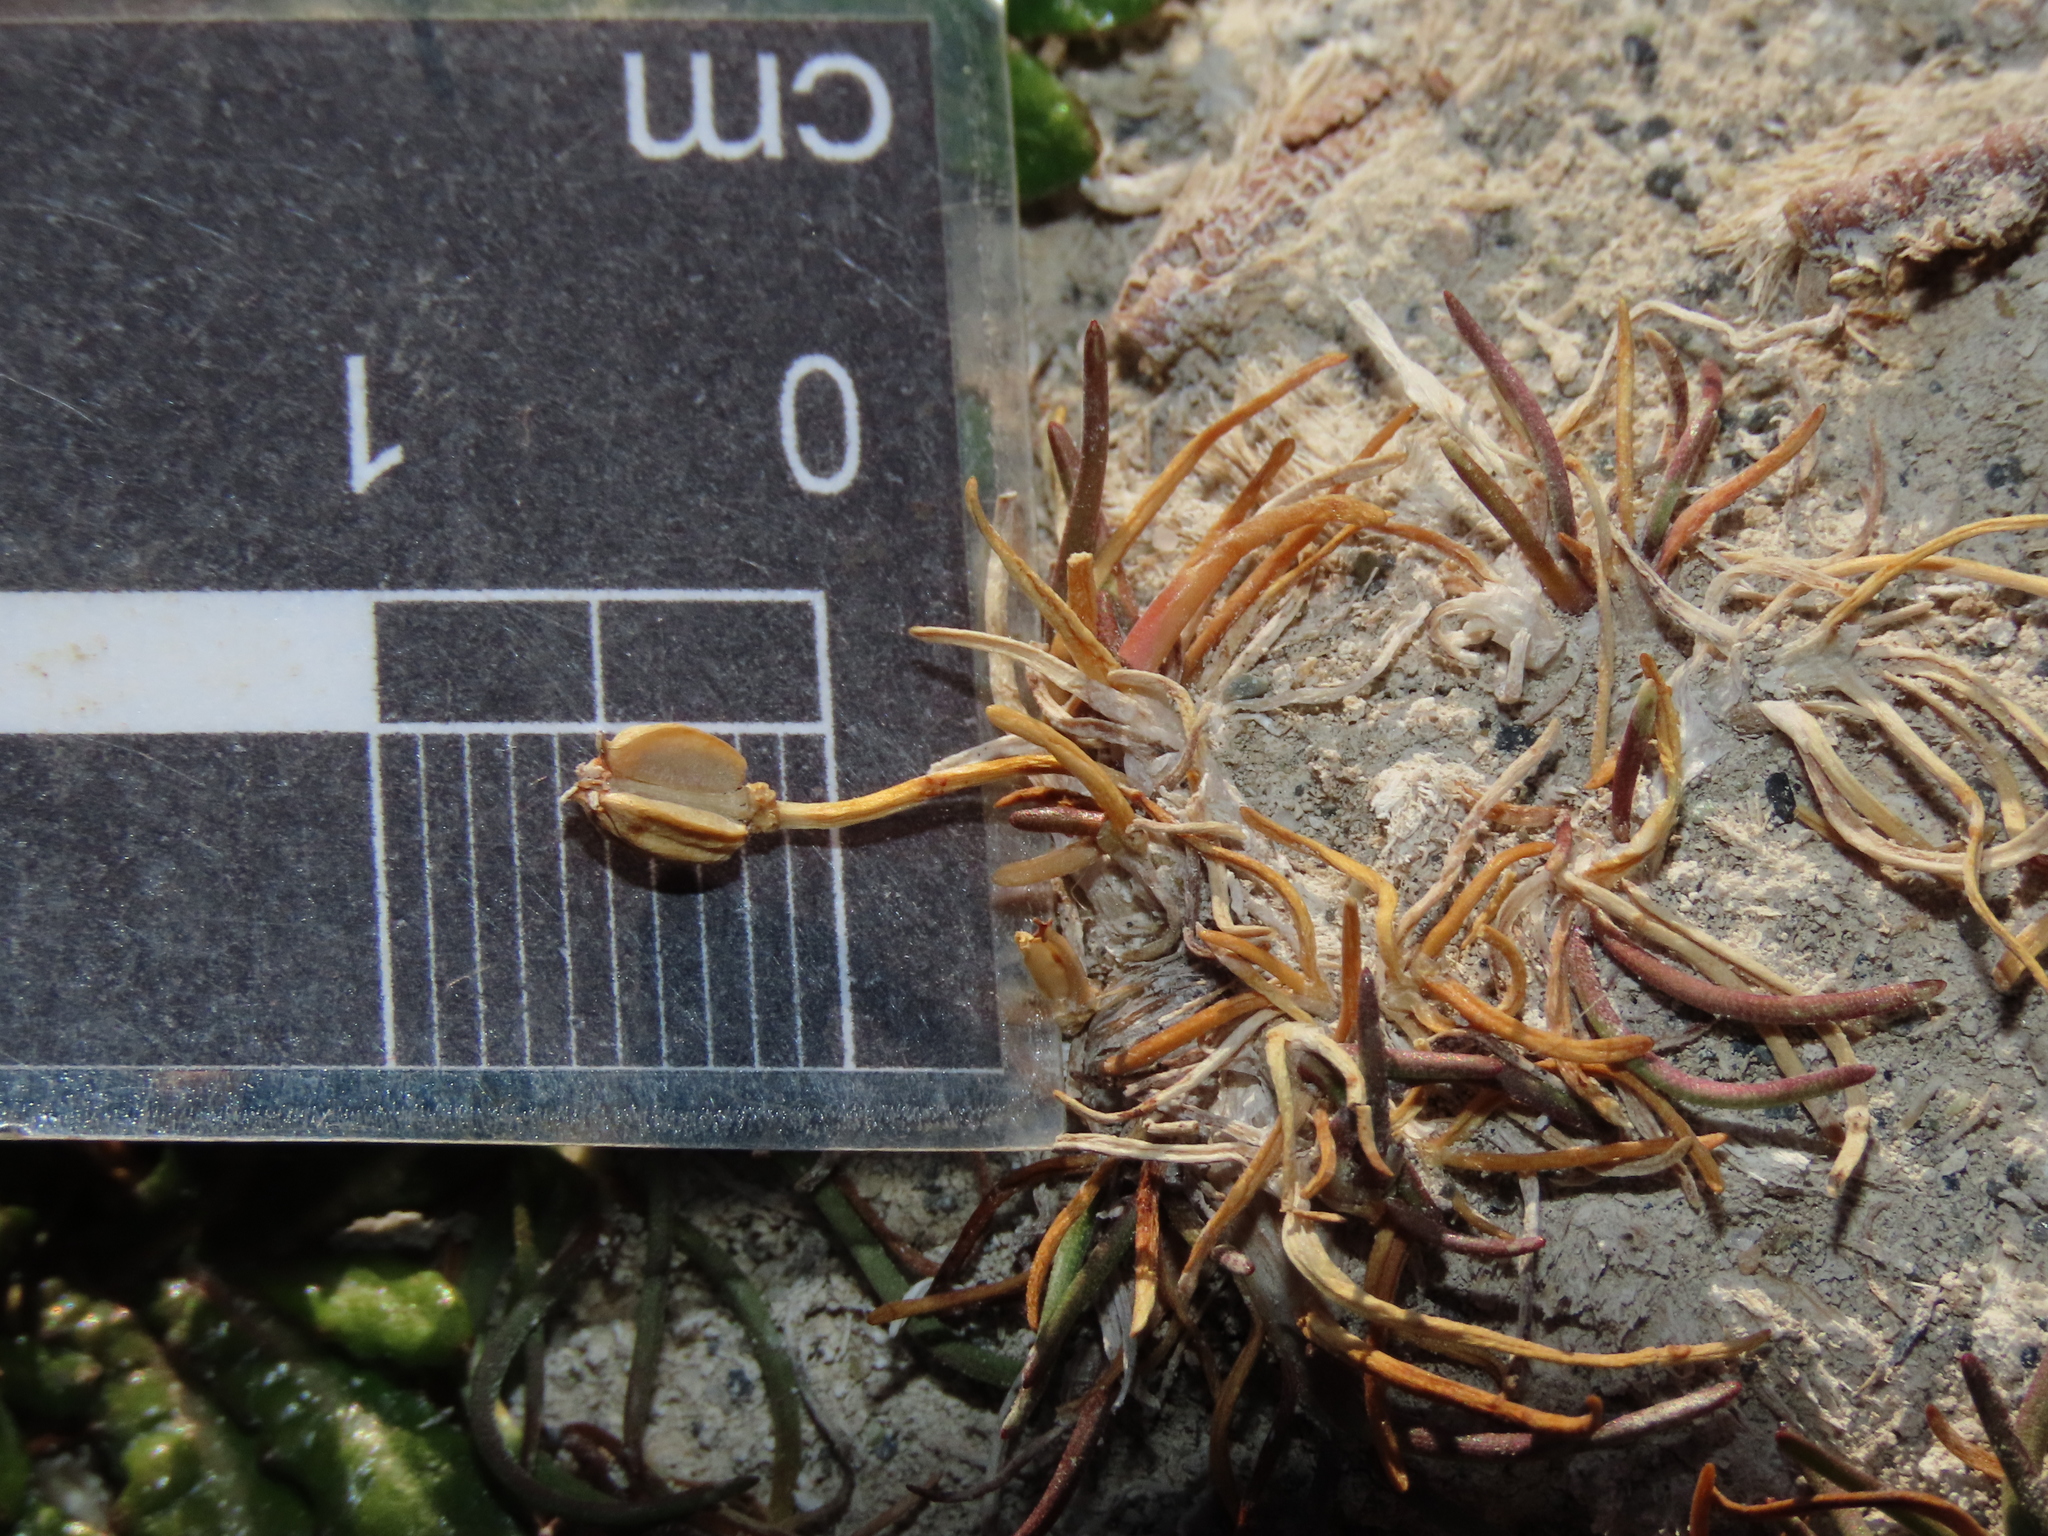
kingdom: Plantae
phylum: Tracheophyta
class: Liliopsida
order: Alismatales
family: Juncaginaceae
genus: Triglochin
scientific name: Triglochin maritima
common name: Sea arrowgrass
